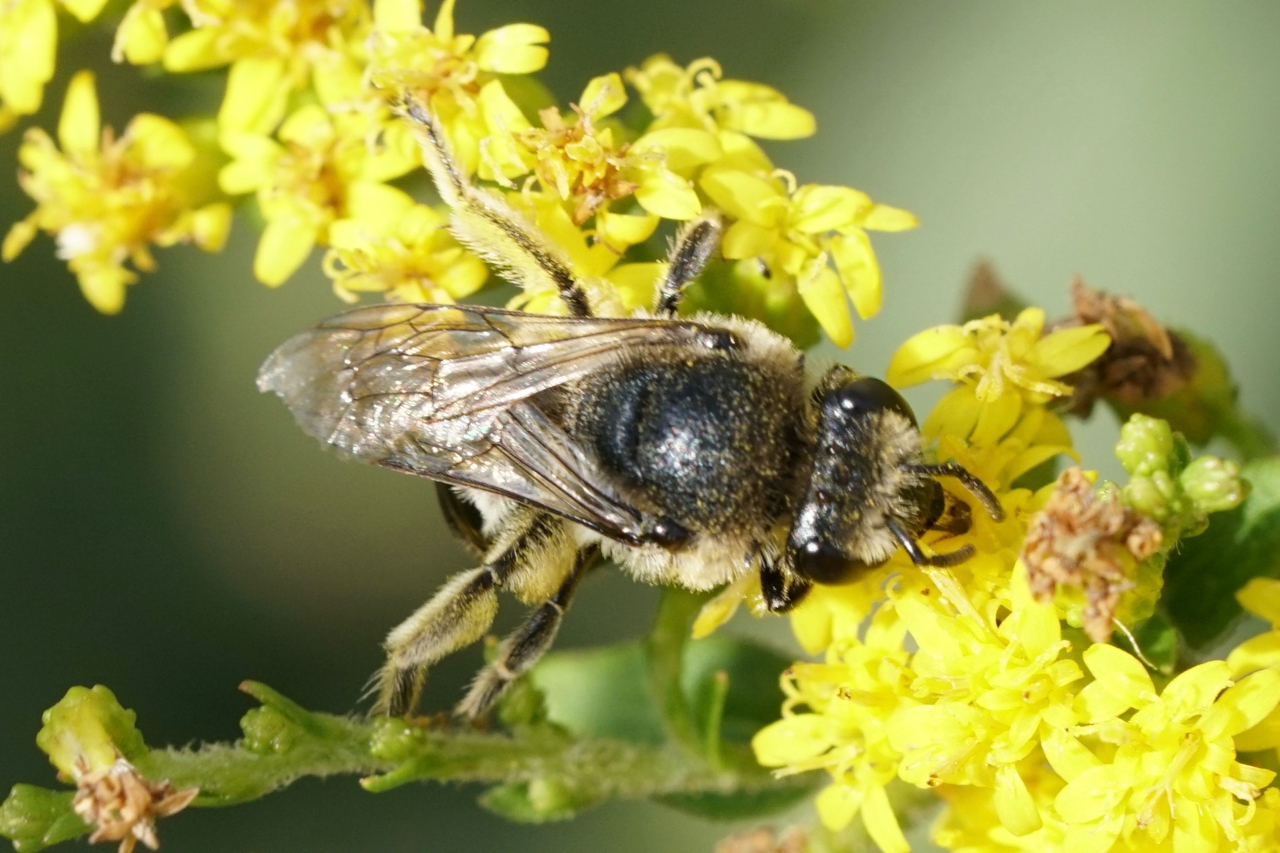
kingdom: Animalia
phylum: Arthropoda
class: Insecta
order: Hymenoptera
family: Colletidae
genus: Colletes
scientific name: Colletes simulans
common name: Spine-shouldered cellophane bee
